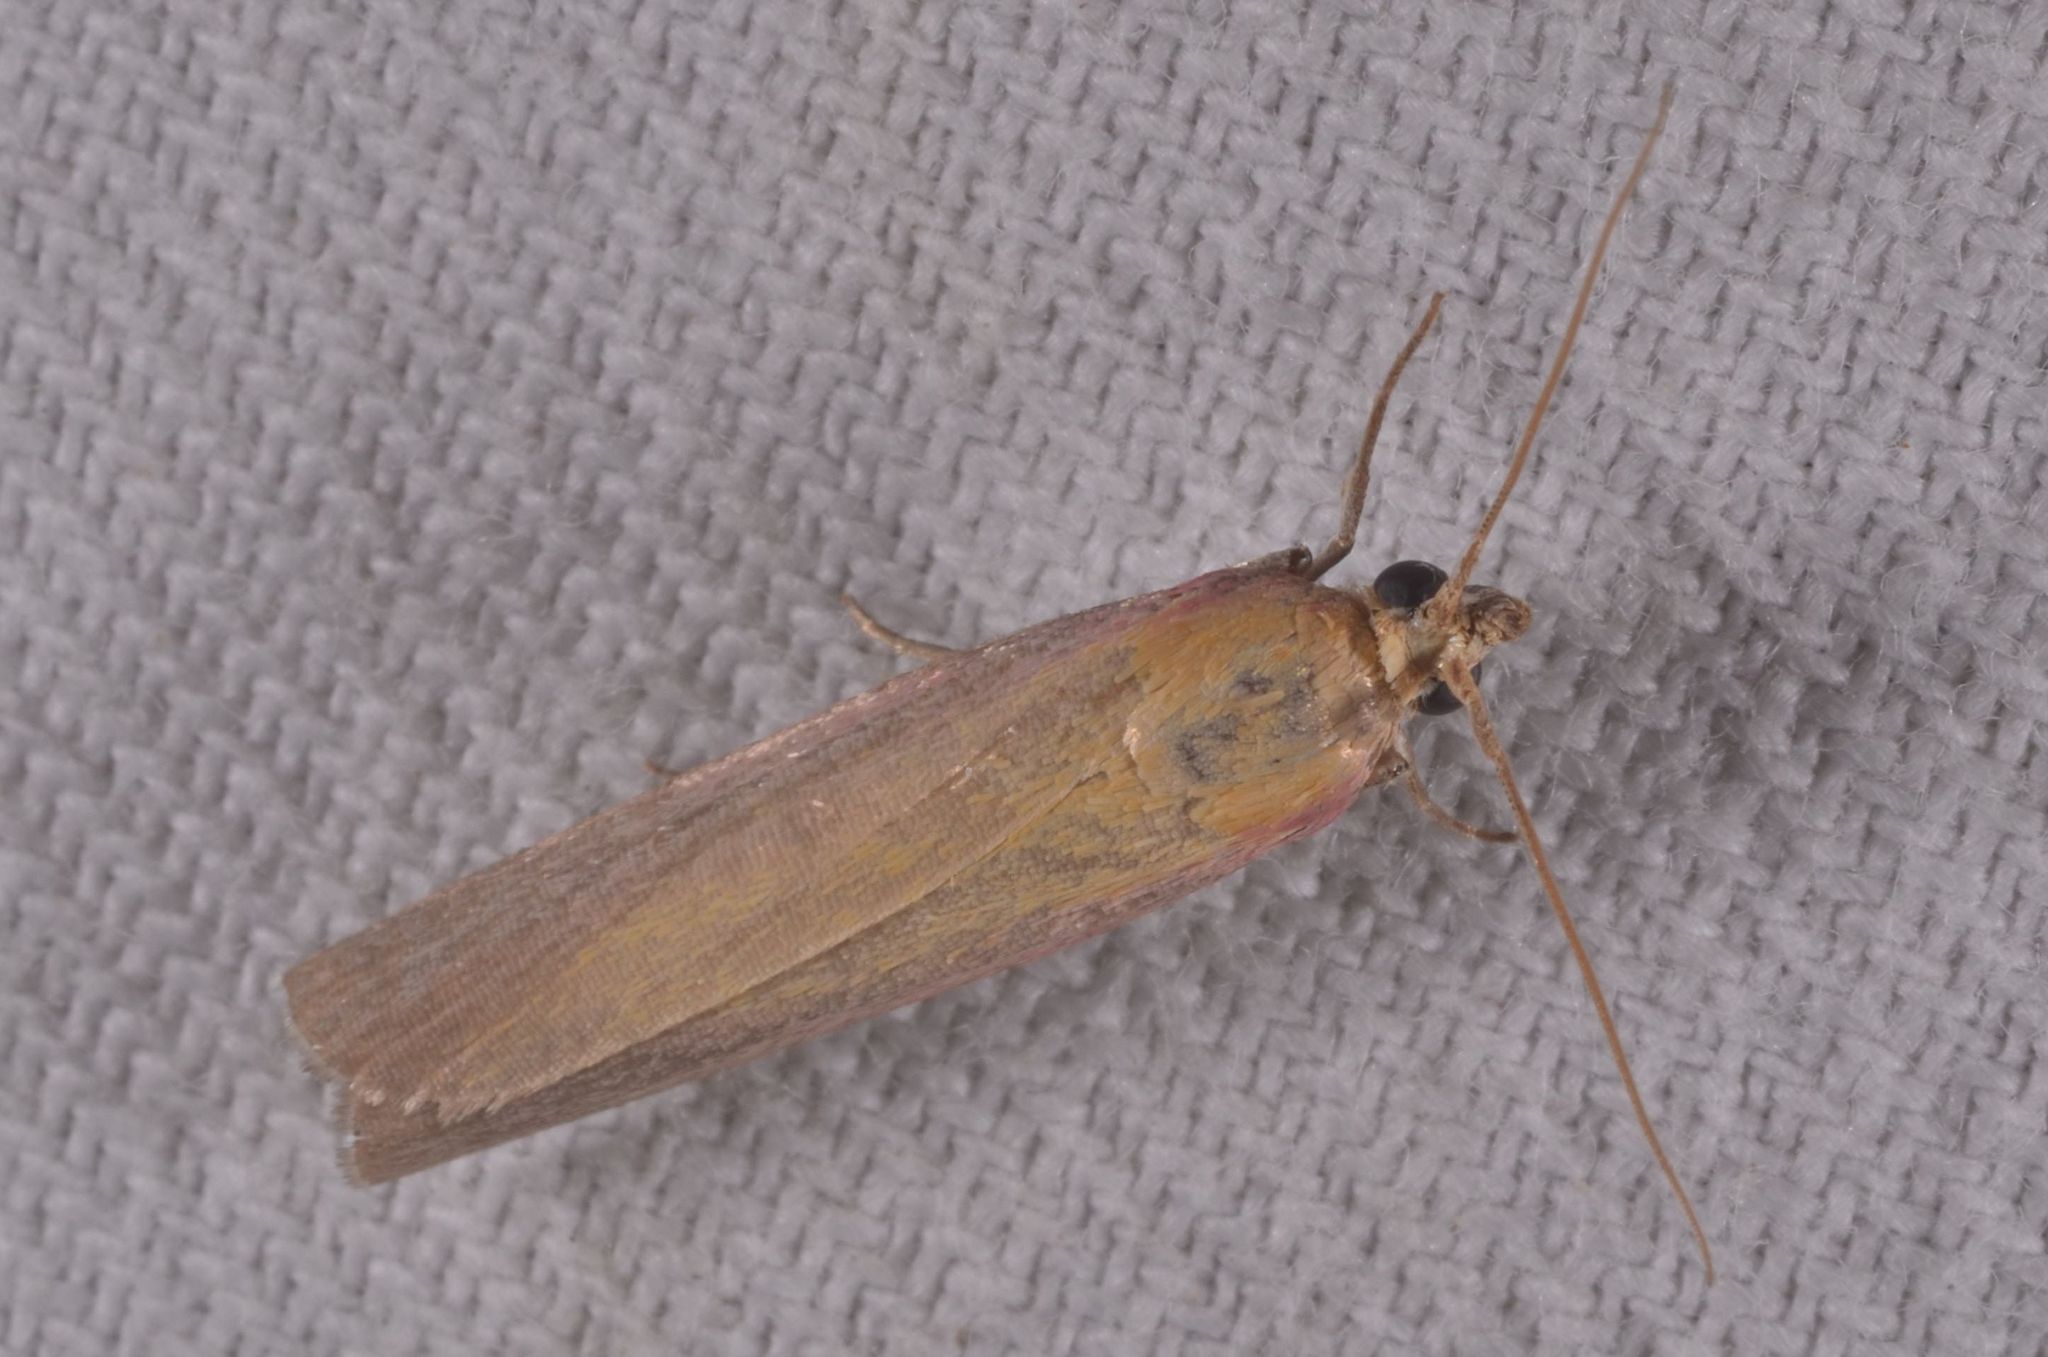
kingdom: Animalia
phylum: Arthropoda
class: Insecta
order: Lepidoptera
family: Pyralidae
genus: Oncocera
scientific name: Oncocera semirubella
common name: Rosy-striped knot-horn
